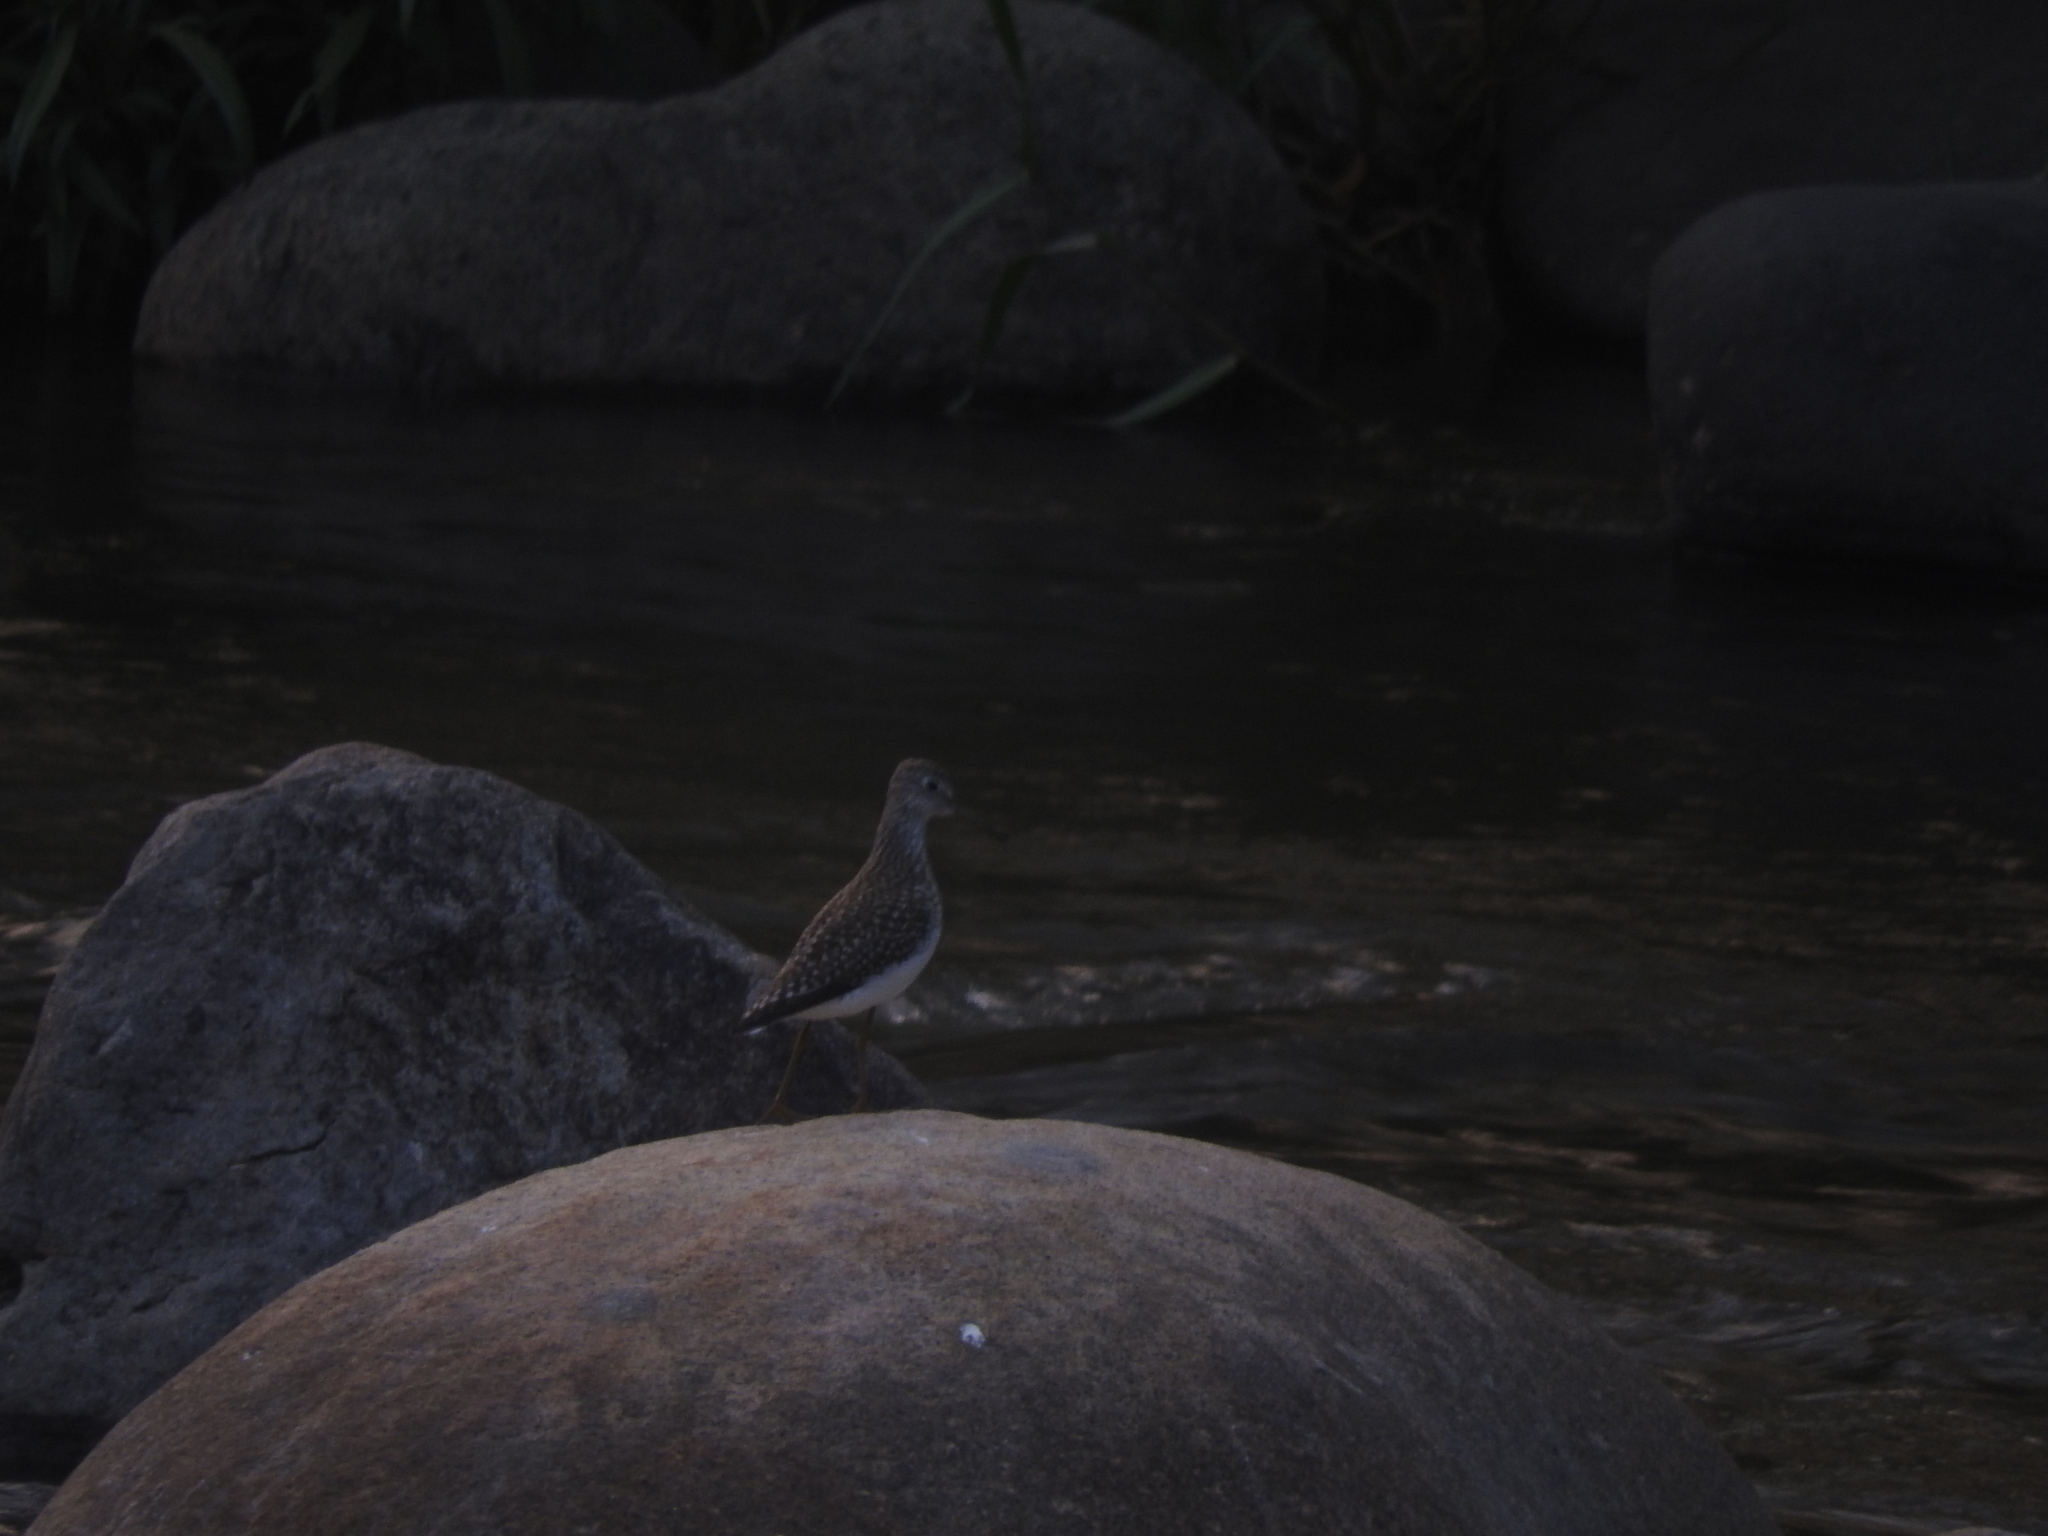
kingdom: Animalia
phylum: Chordata
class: Aves
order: Charadriiformes
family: Scolopacidae
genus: Tringa
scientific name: Tringa solitaria
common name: Solitary sandpiper
